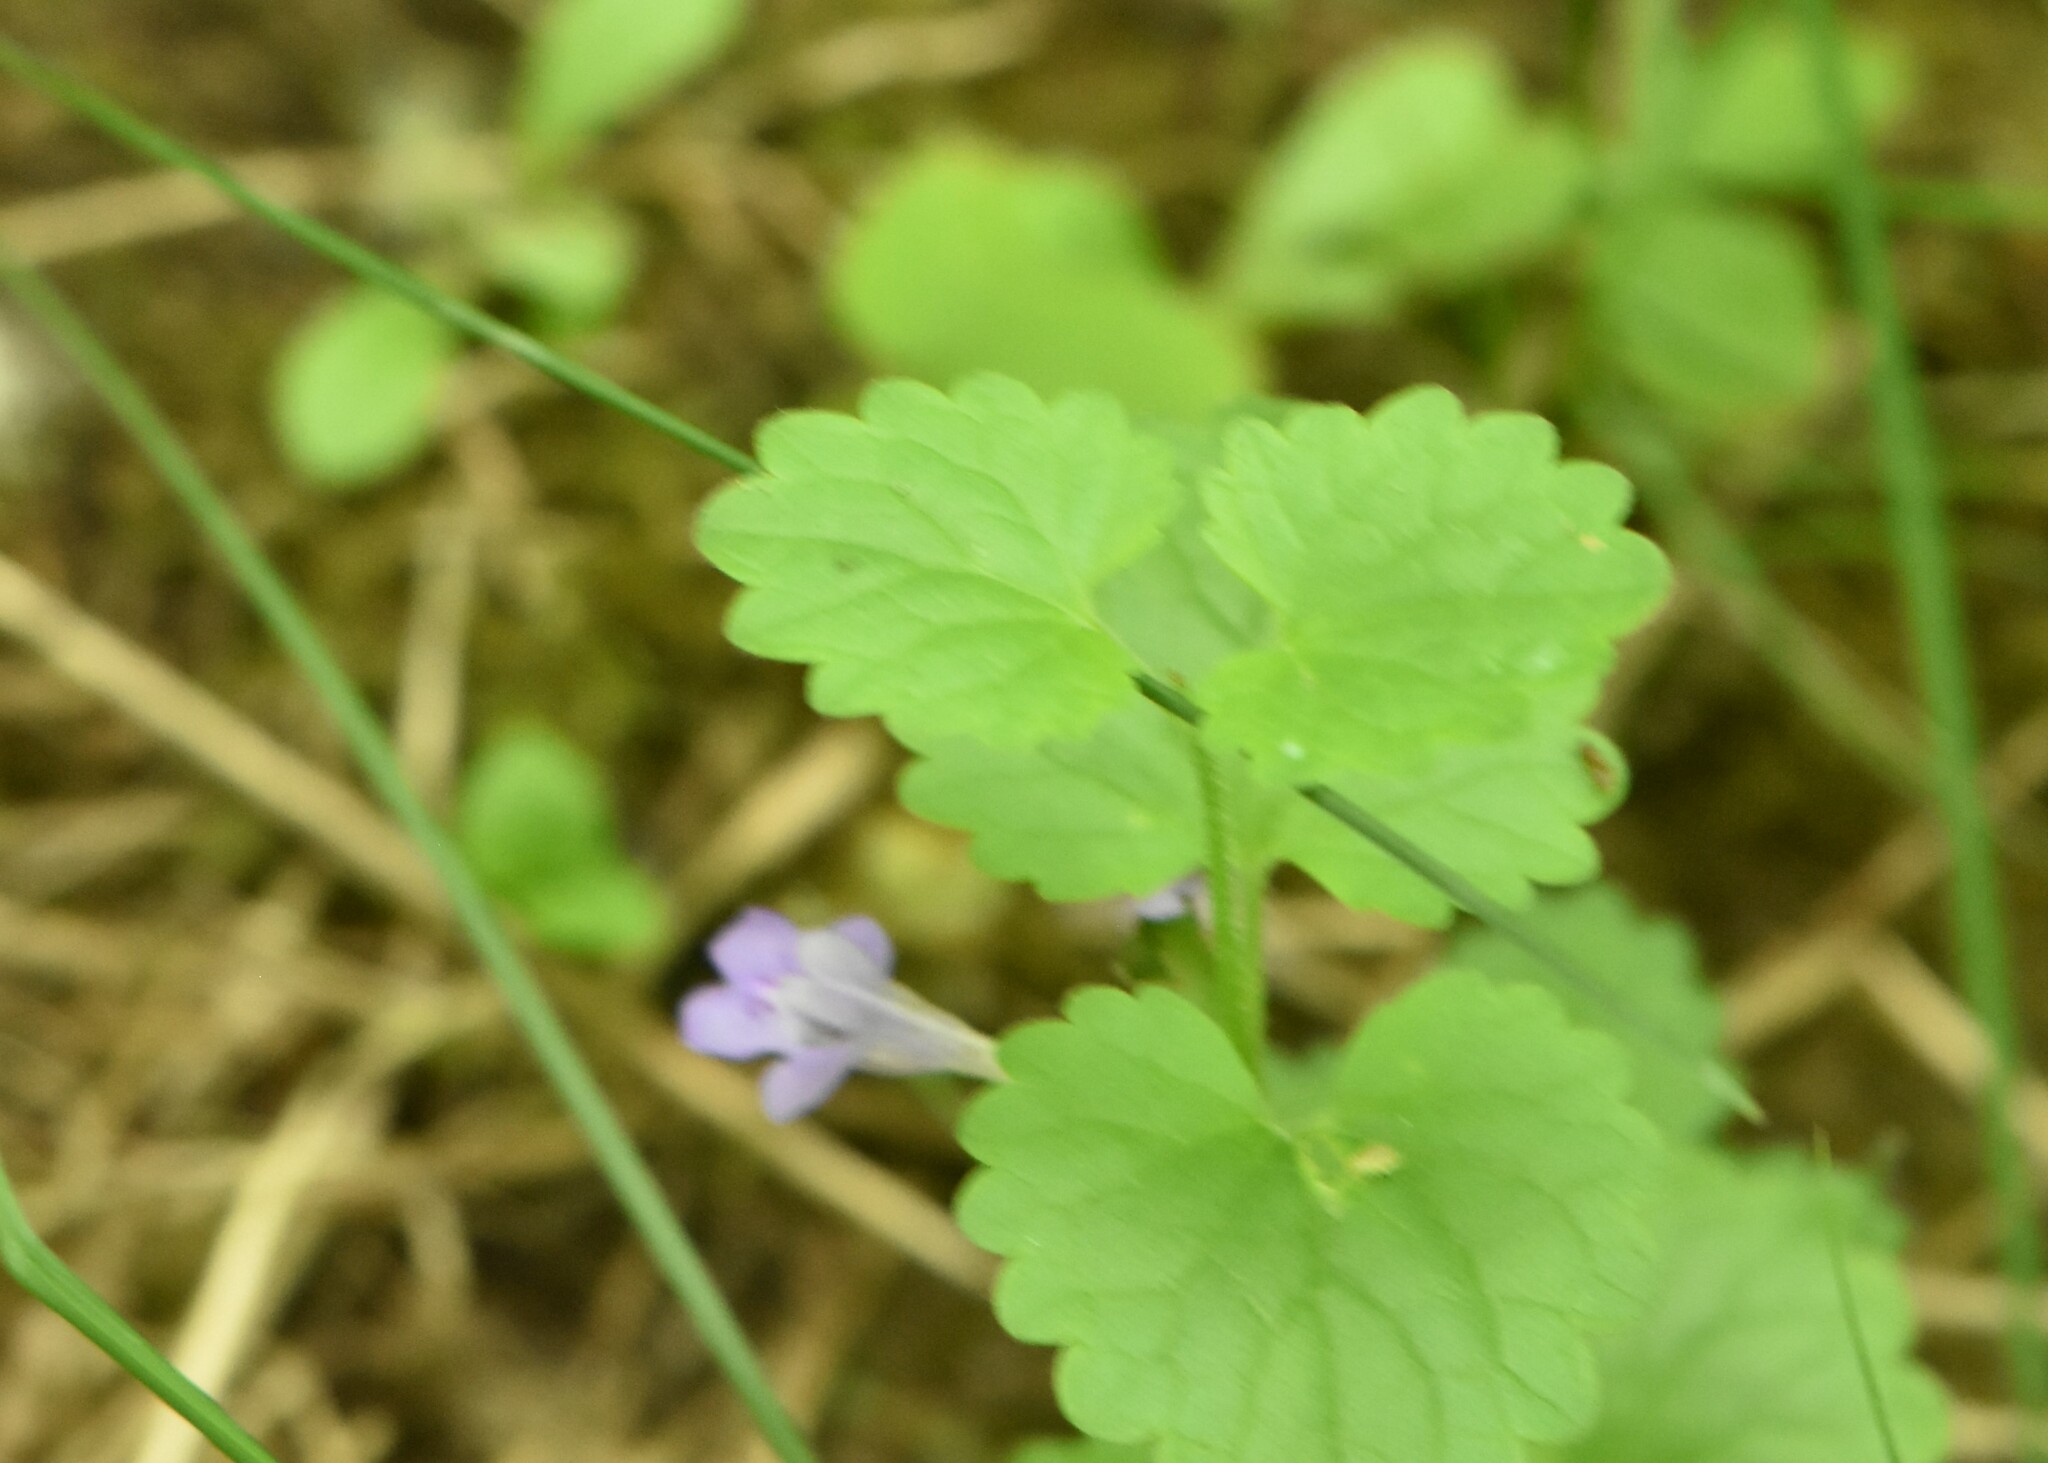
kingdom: Plantae
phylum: Tracheophyta
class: Magnoliopsida
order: Lamiales
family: Lamiaceae
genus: Glechoma
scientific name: Glechoma hederacea
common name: Ground ivy
